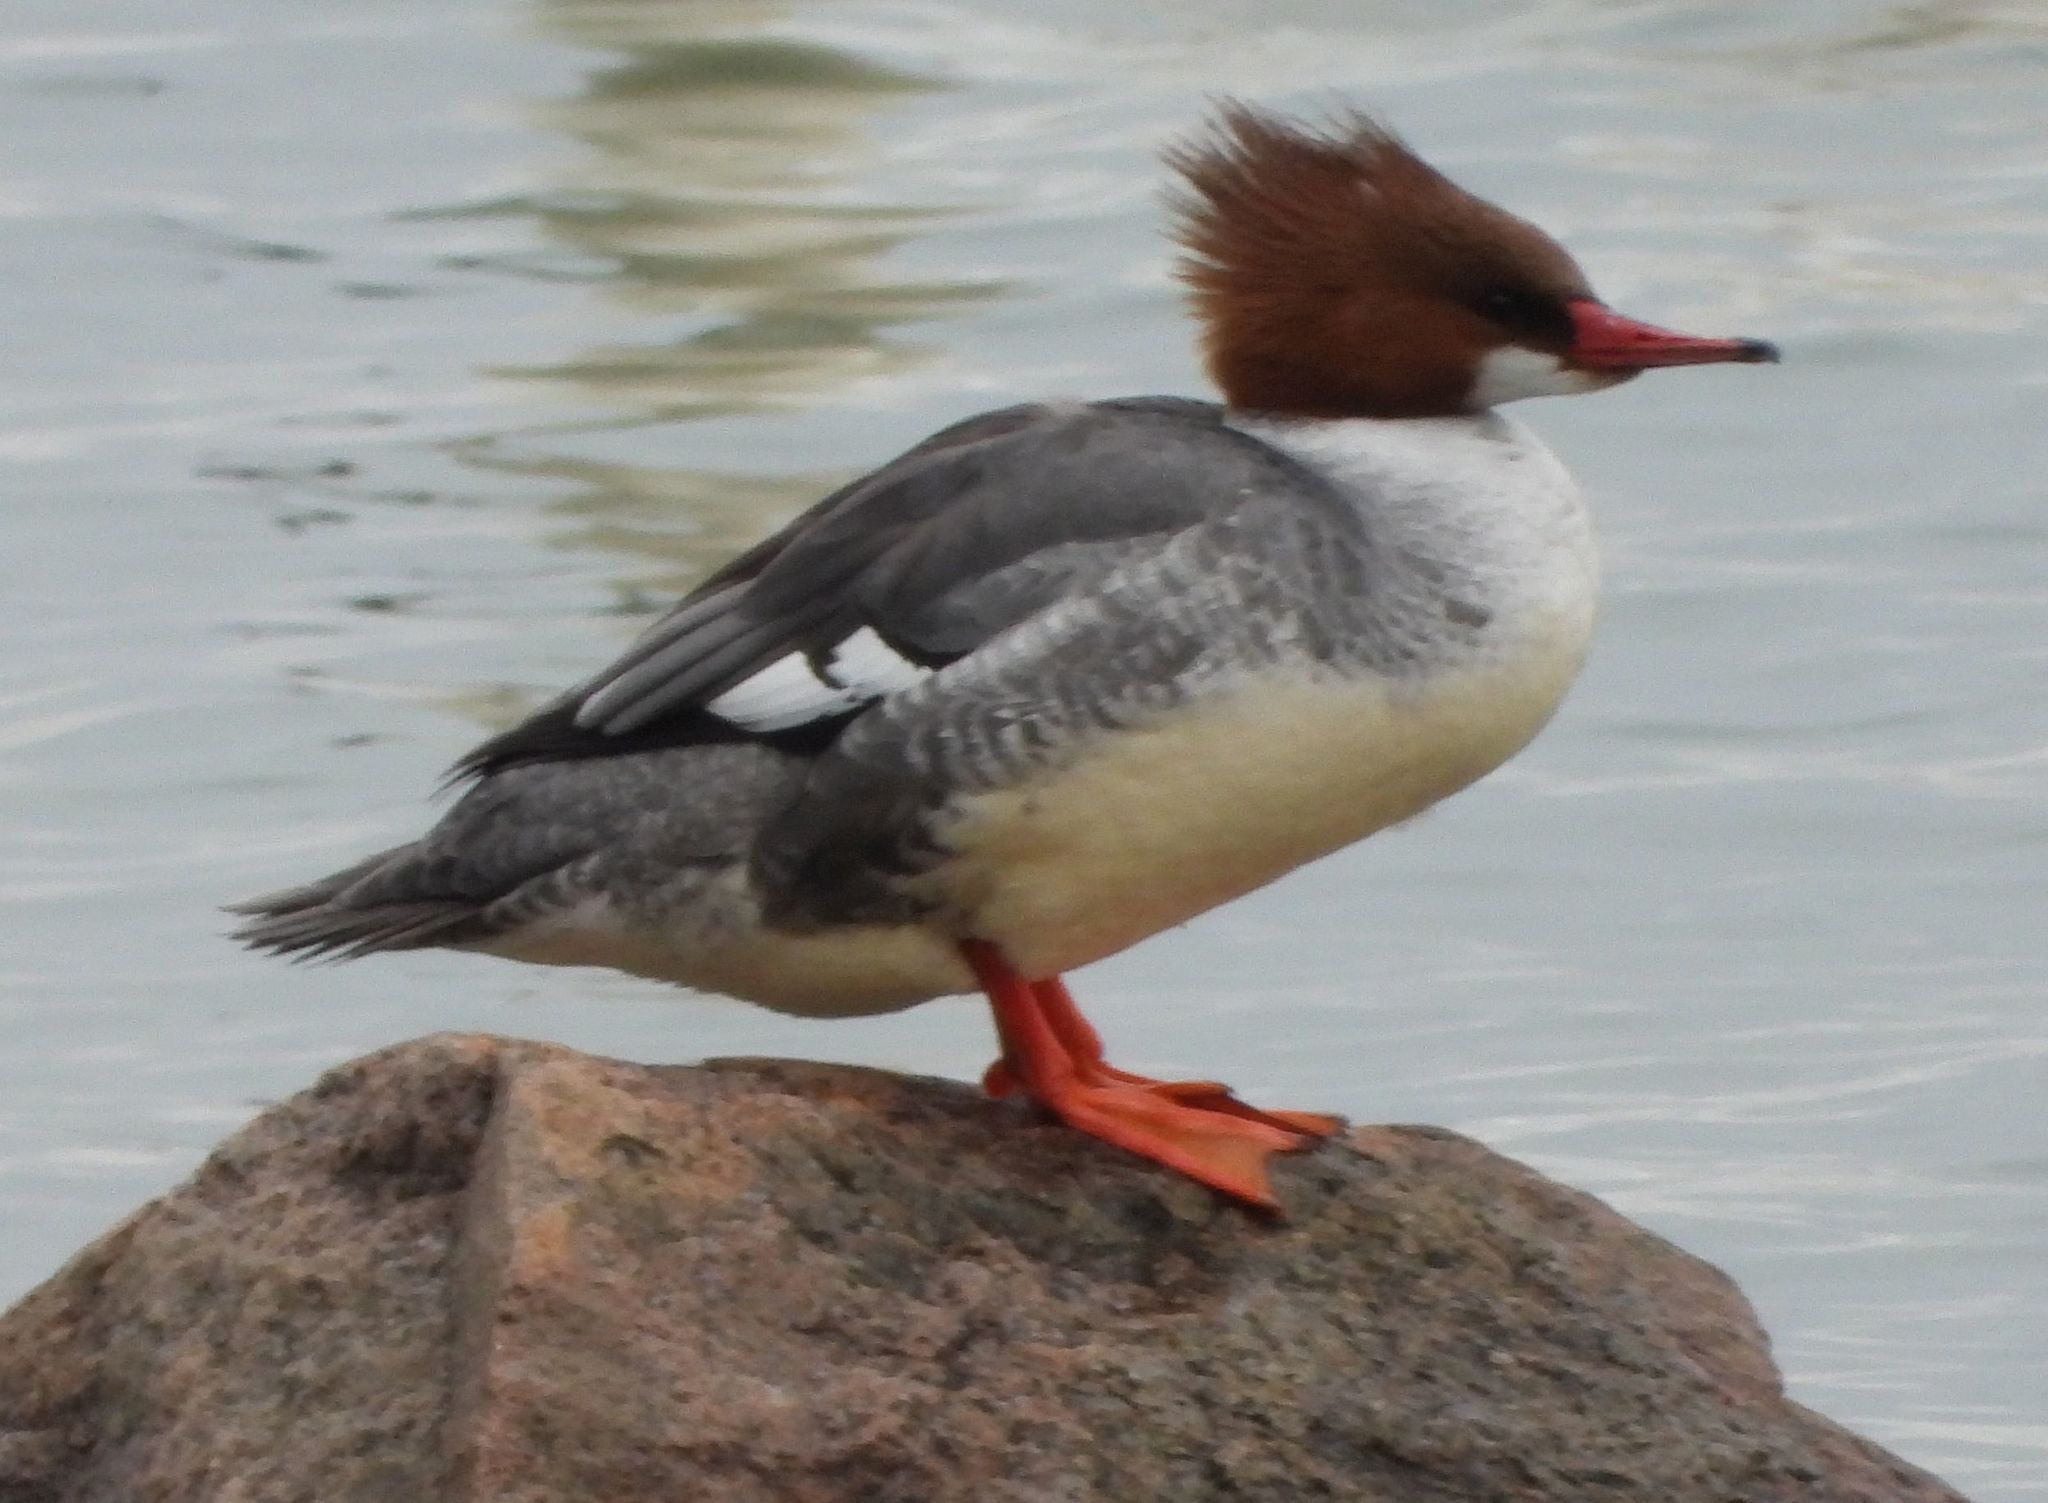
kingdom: Animalia
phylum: Chordata
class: Aves
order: Anseriformes
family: Anatidae
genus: Mergus
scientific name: Mergus merganser
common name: Common merganser
